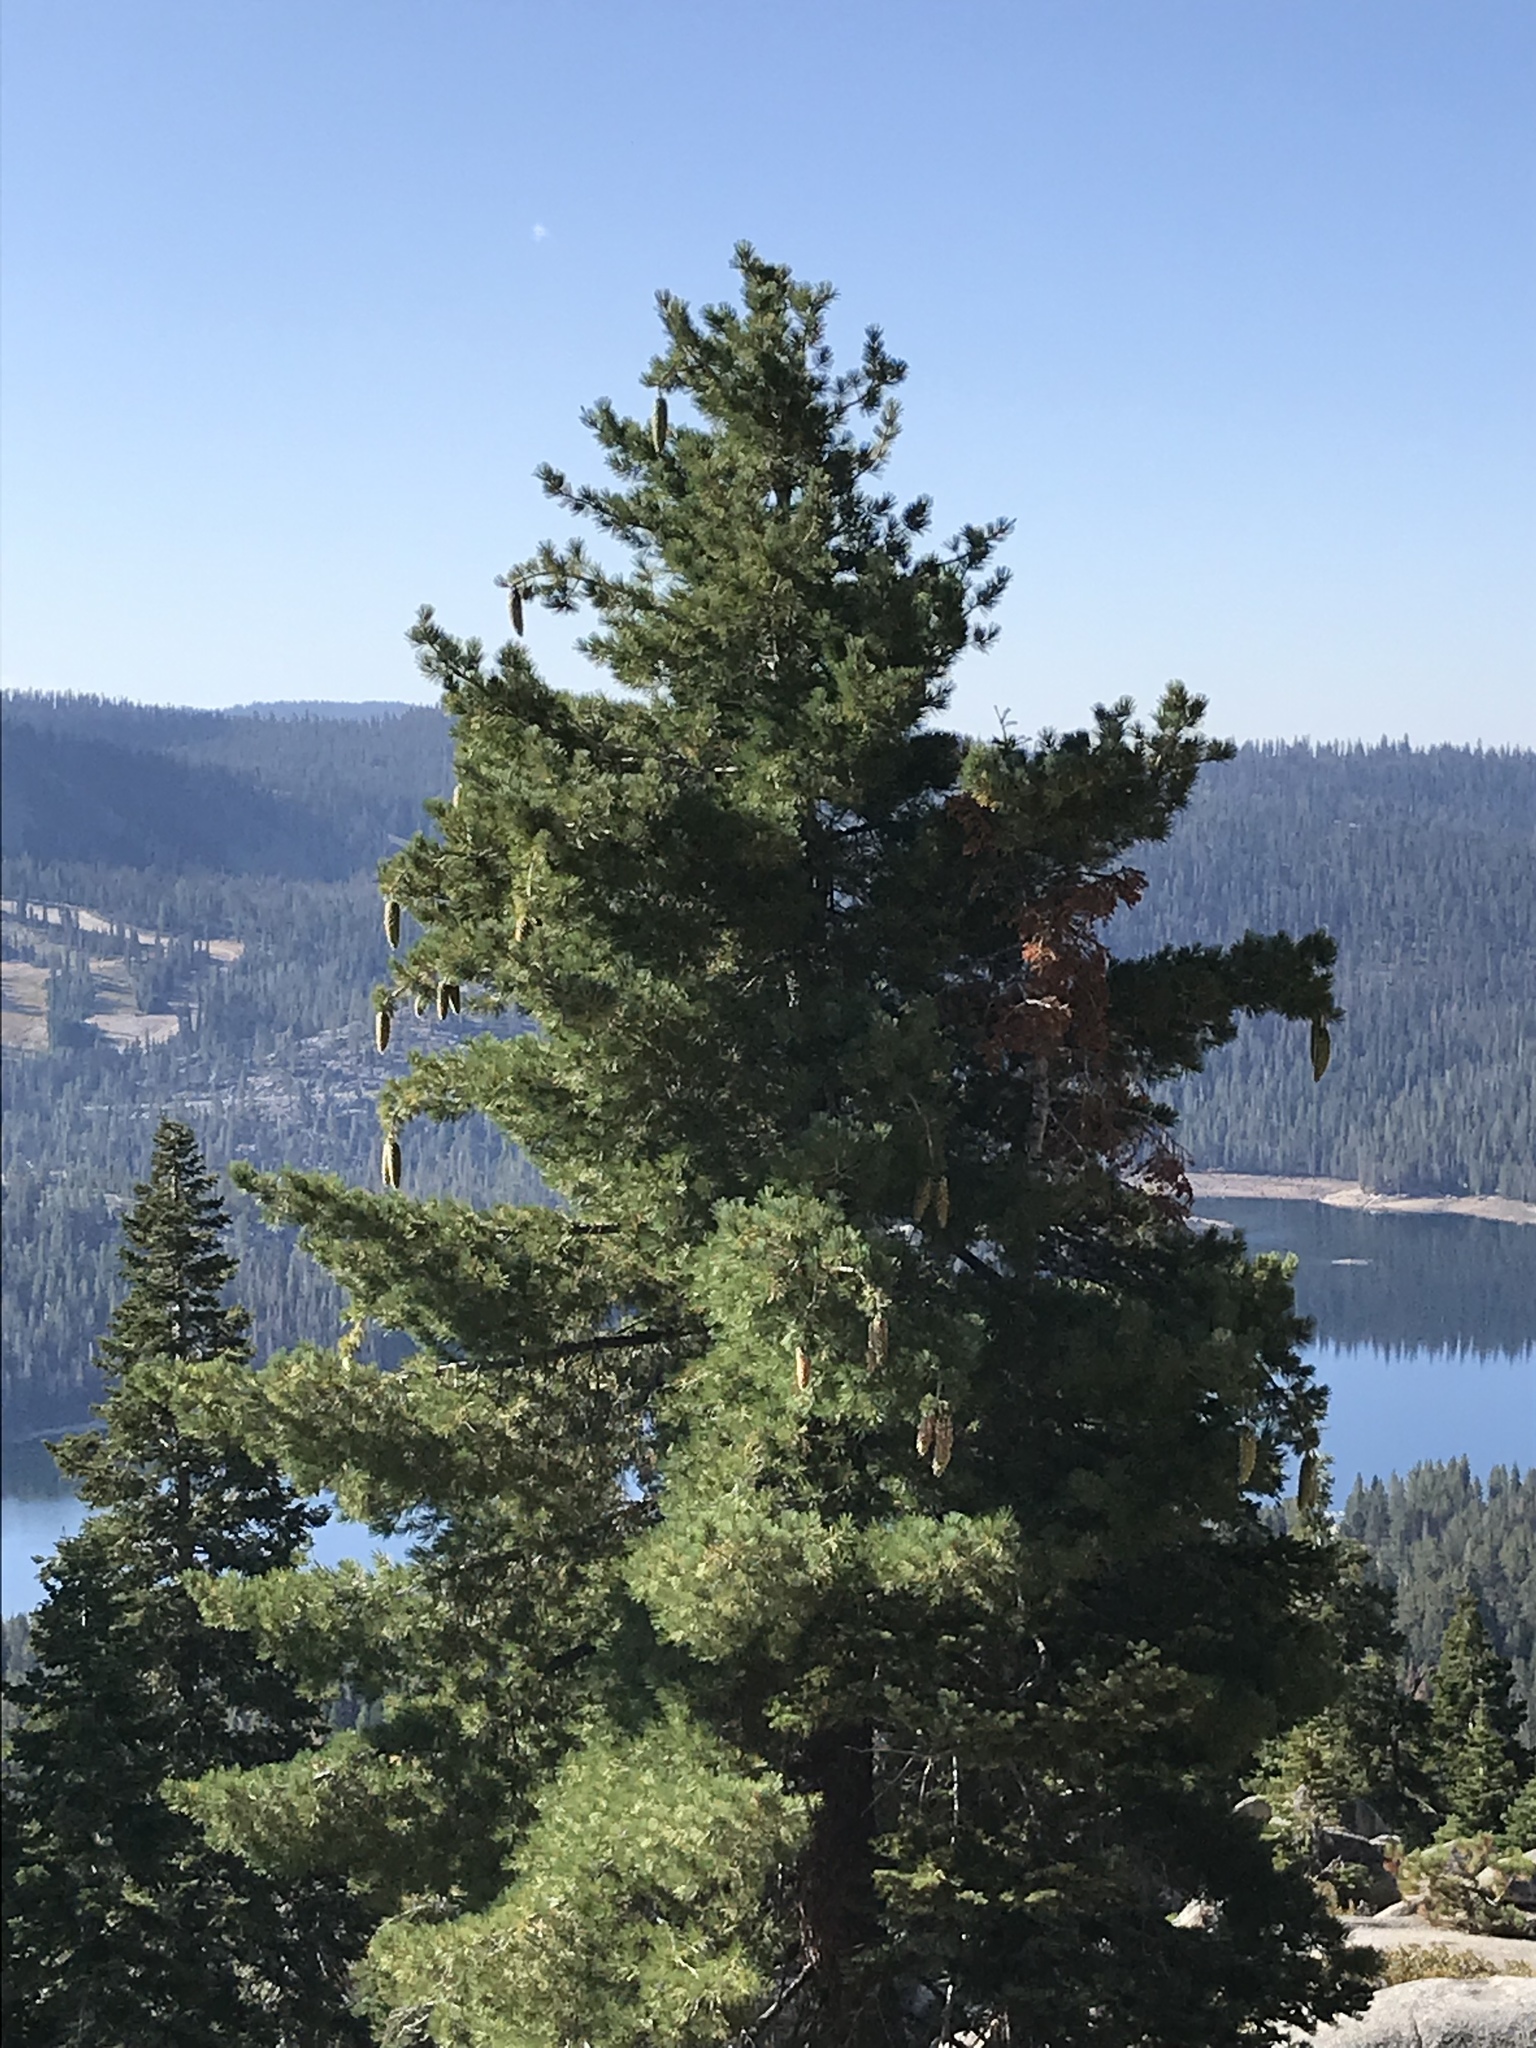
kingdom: Plantae
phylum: Tracheophyta
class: Pinopsida
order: Pinales
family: Pinaceae
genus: Pinus
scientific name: Pinus lambertiana
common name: Sugar pine
